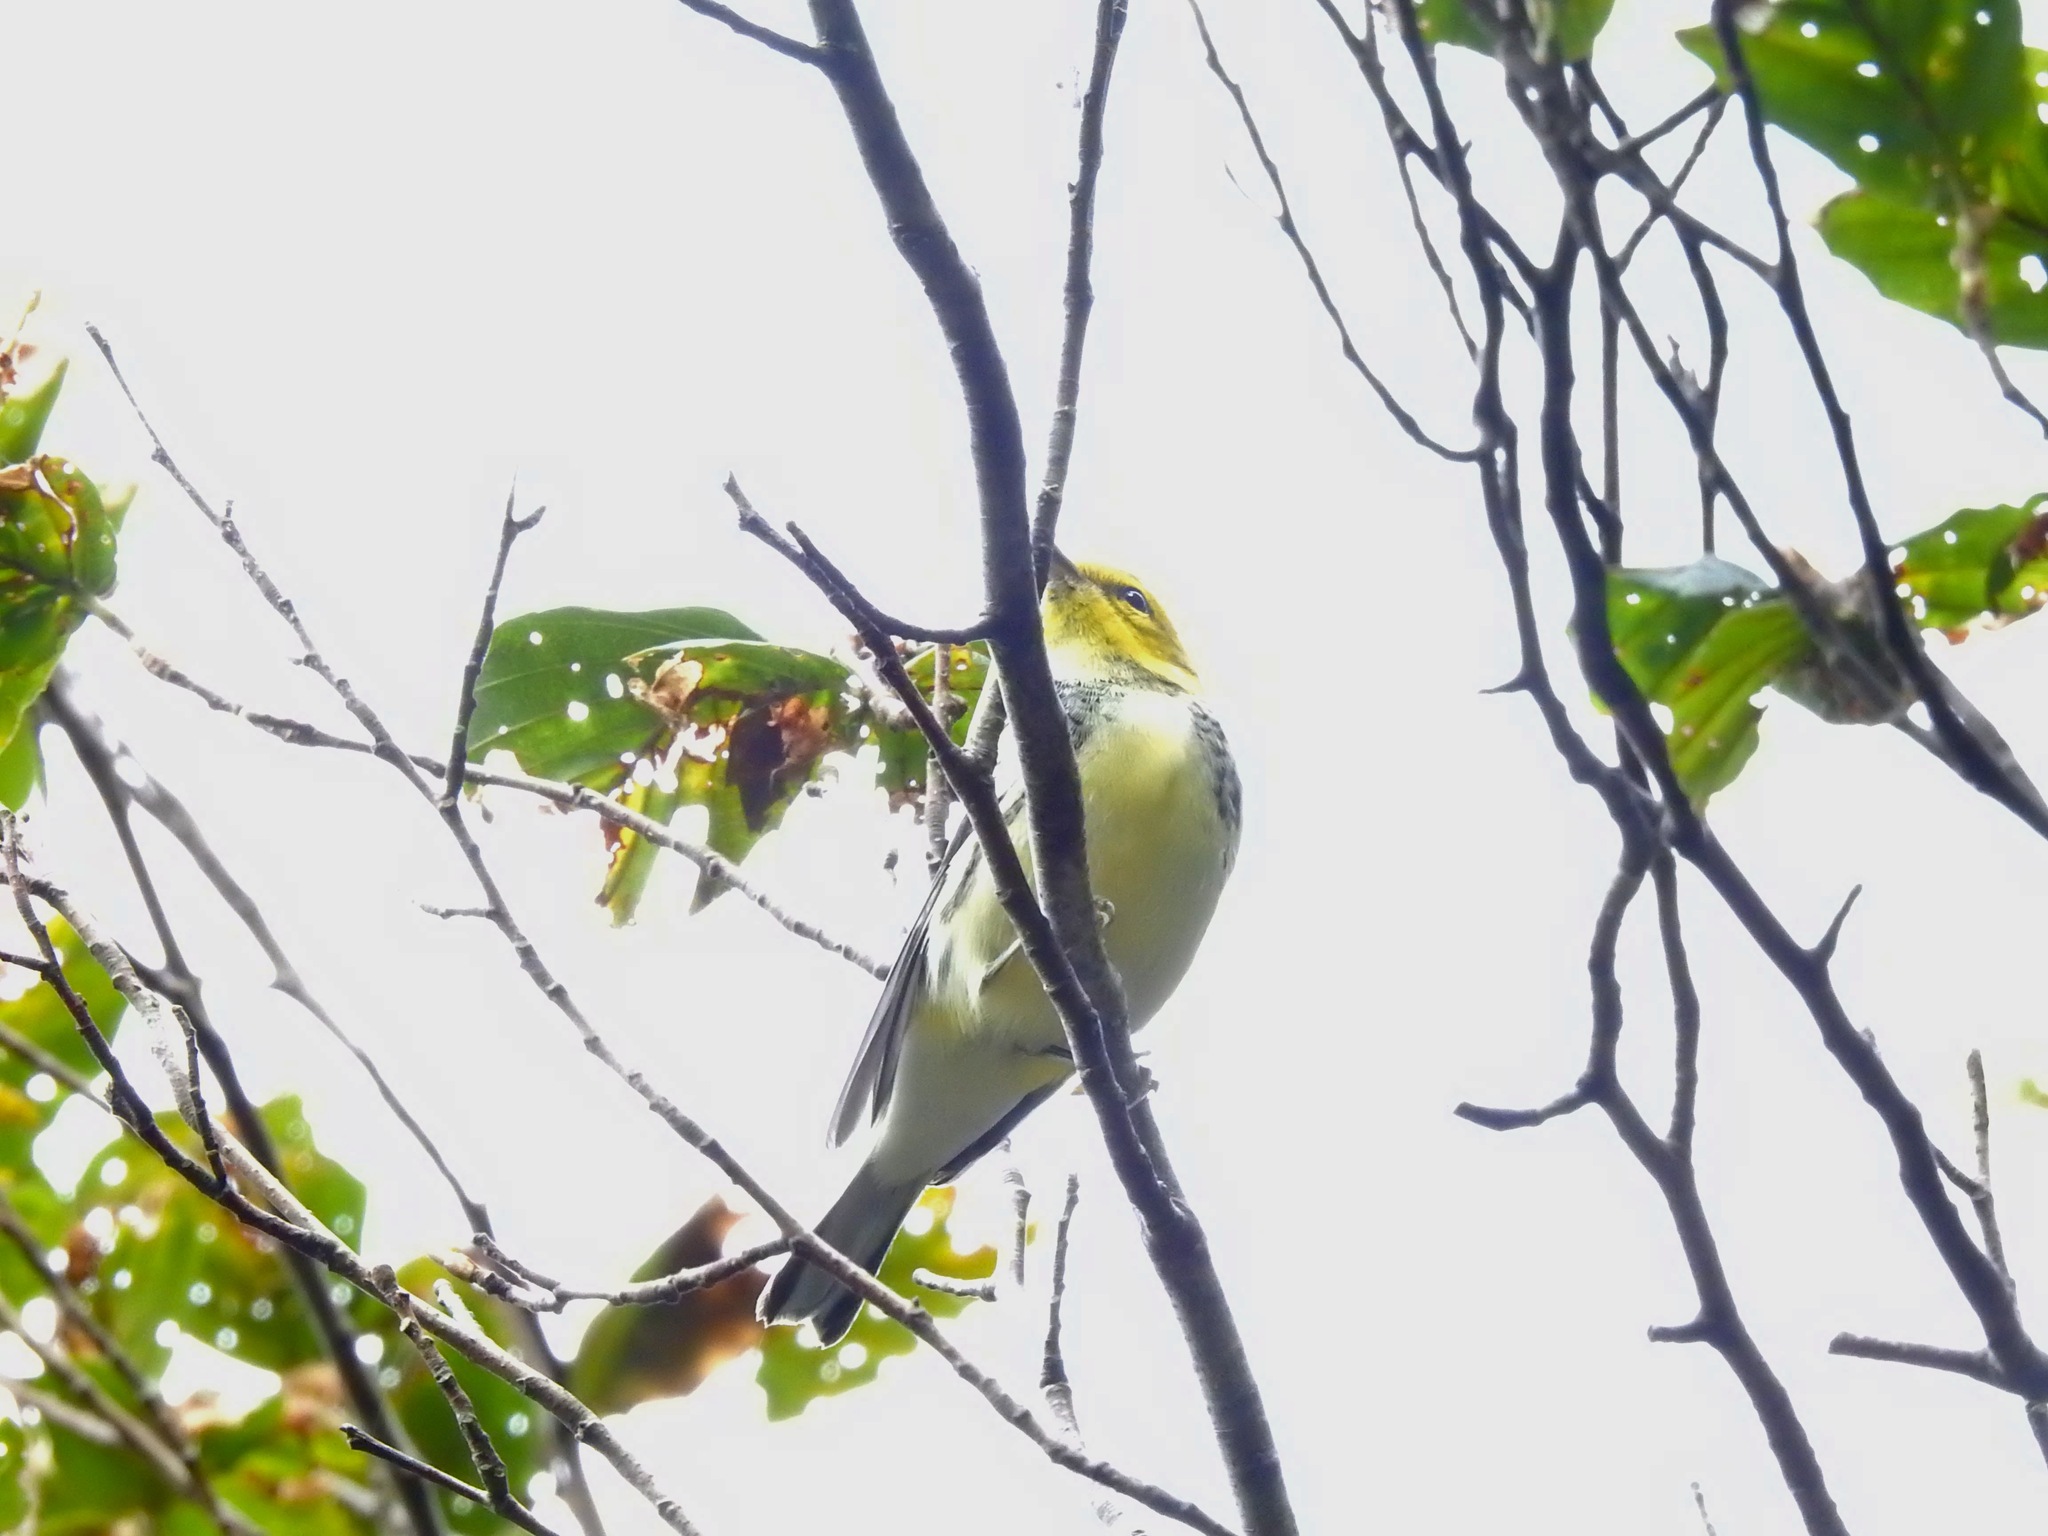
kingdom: Animalia
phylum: Chordata
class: Aves
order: Passeriformes
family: Parulidae
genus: Setophaga
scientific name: Setophaga virens
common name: Black-throated green warbler
